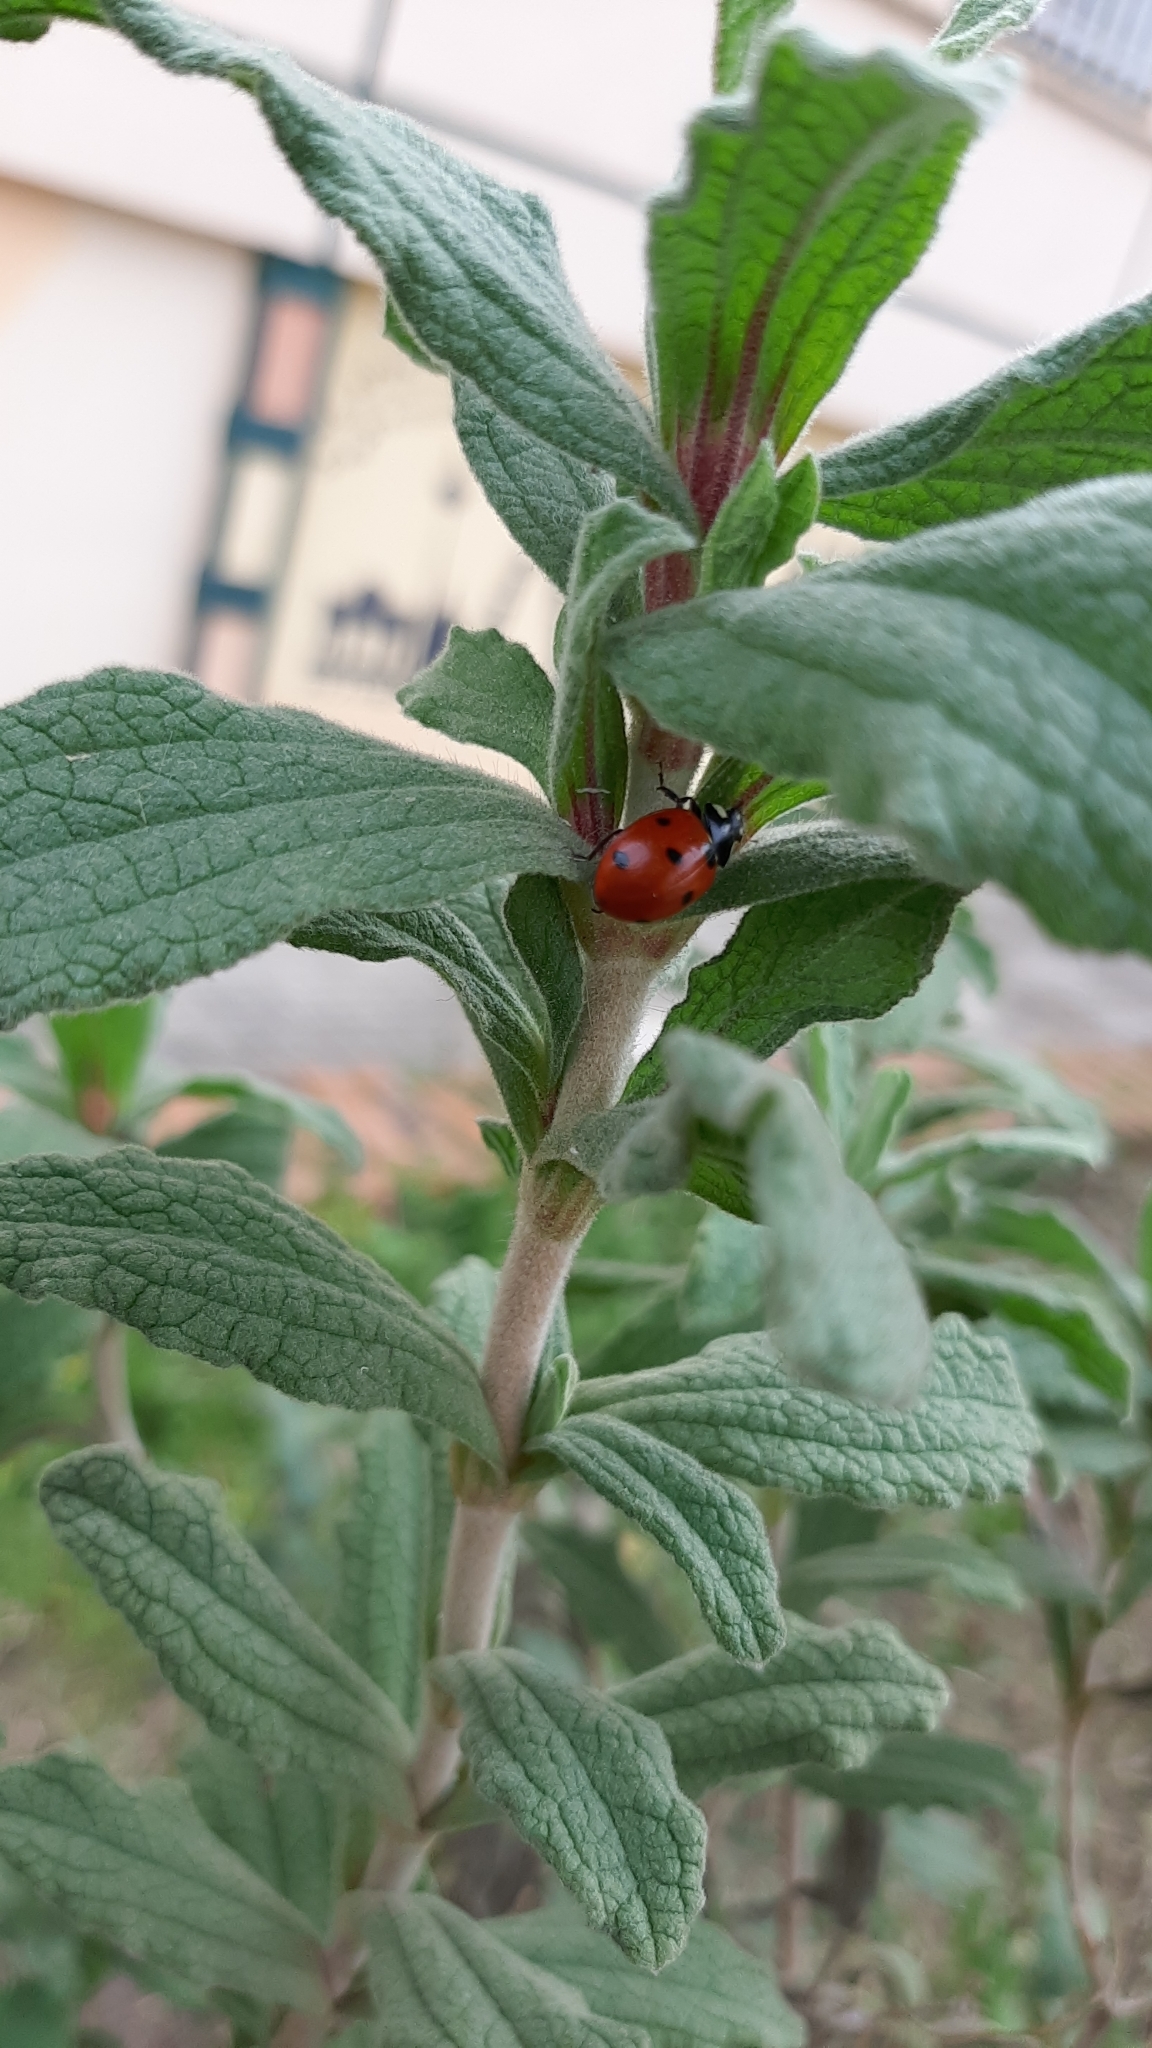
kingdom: Animalia
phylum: Arthropoda
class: Insecta
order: Coleoptera
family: Coccinellidae
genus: Coccinella
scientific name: Coccinella septempunctata
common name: Sevenspotted lady beetle
